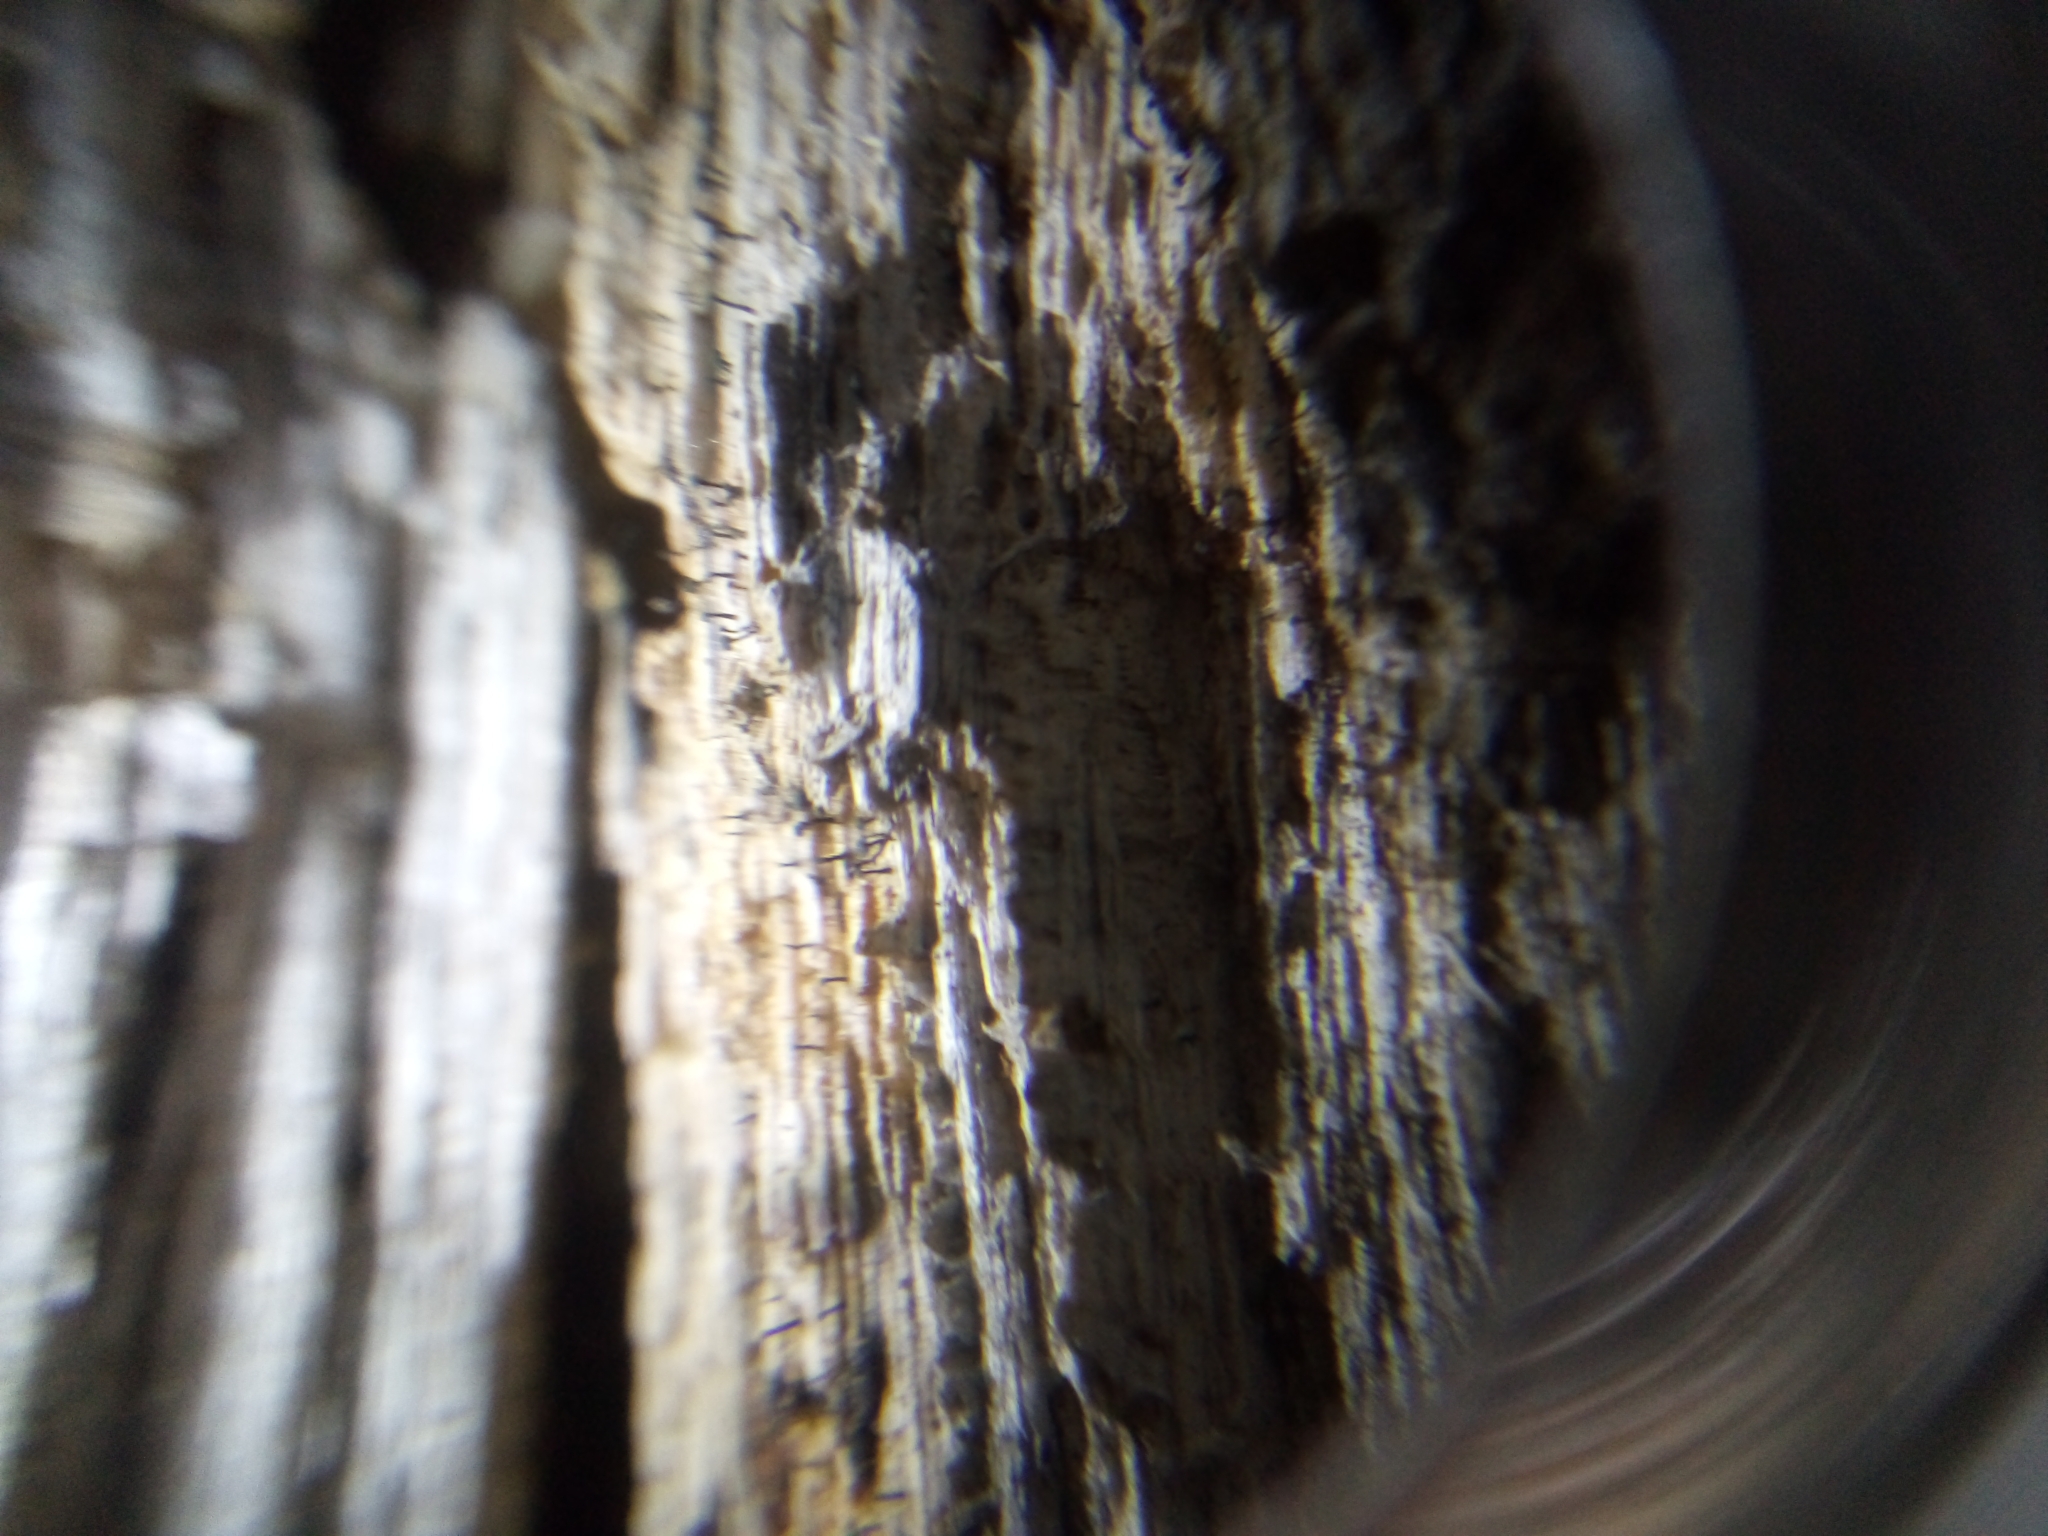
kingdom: Fungi
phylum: Ascomycota
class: Coniocybomycetes
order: Coniocybales
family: Coniocybaceae
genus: Chaenotheca
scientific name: Chaenotheca brunneola
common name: Pinhead lichen
